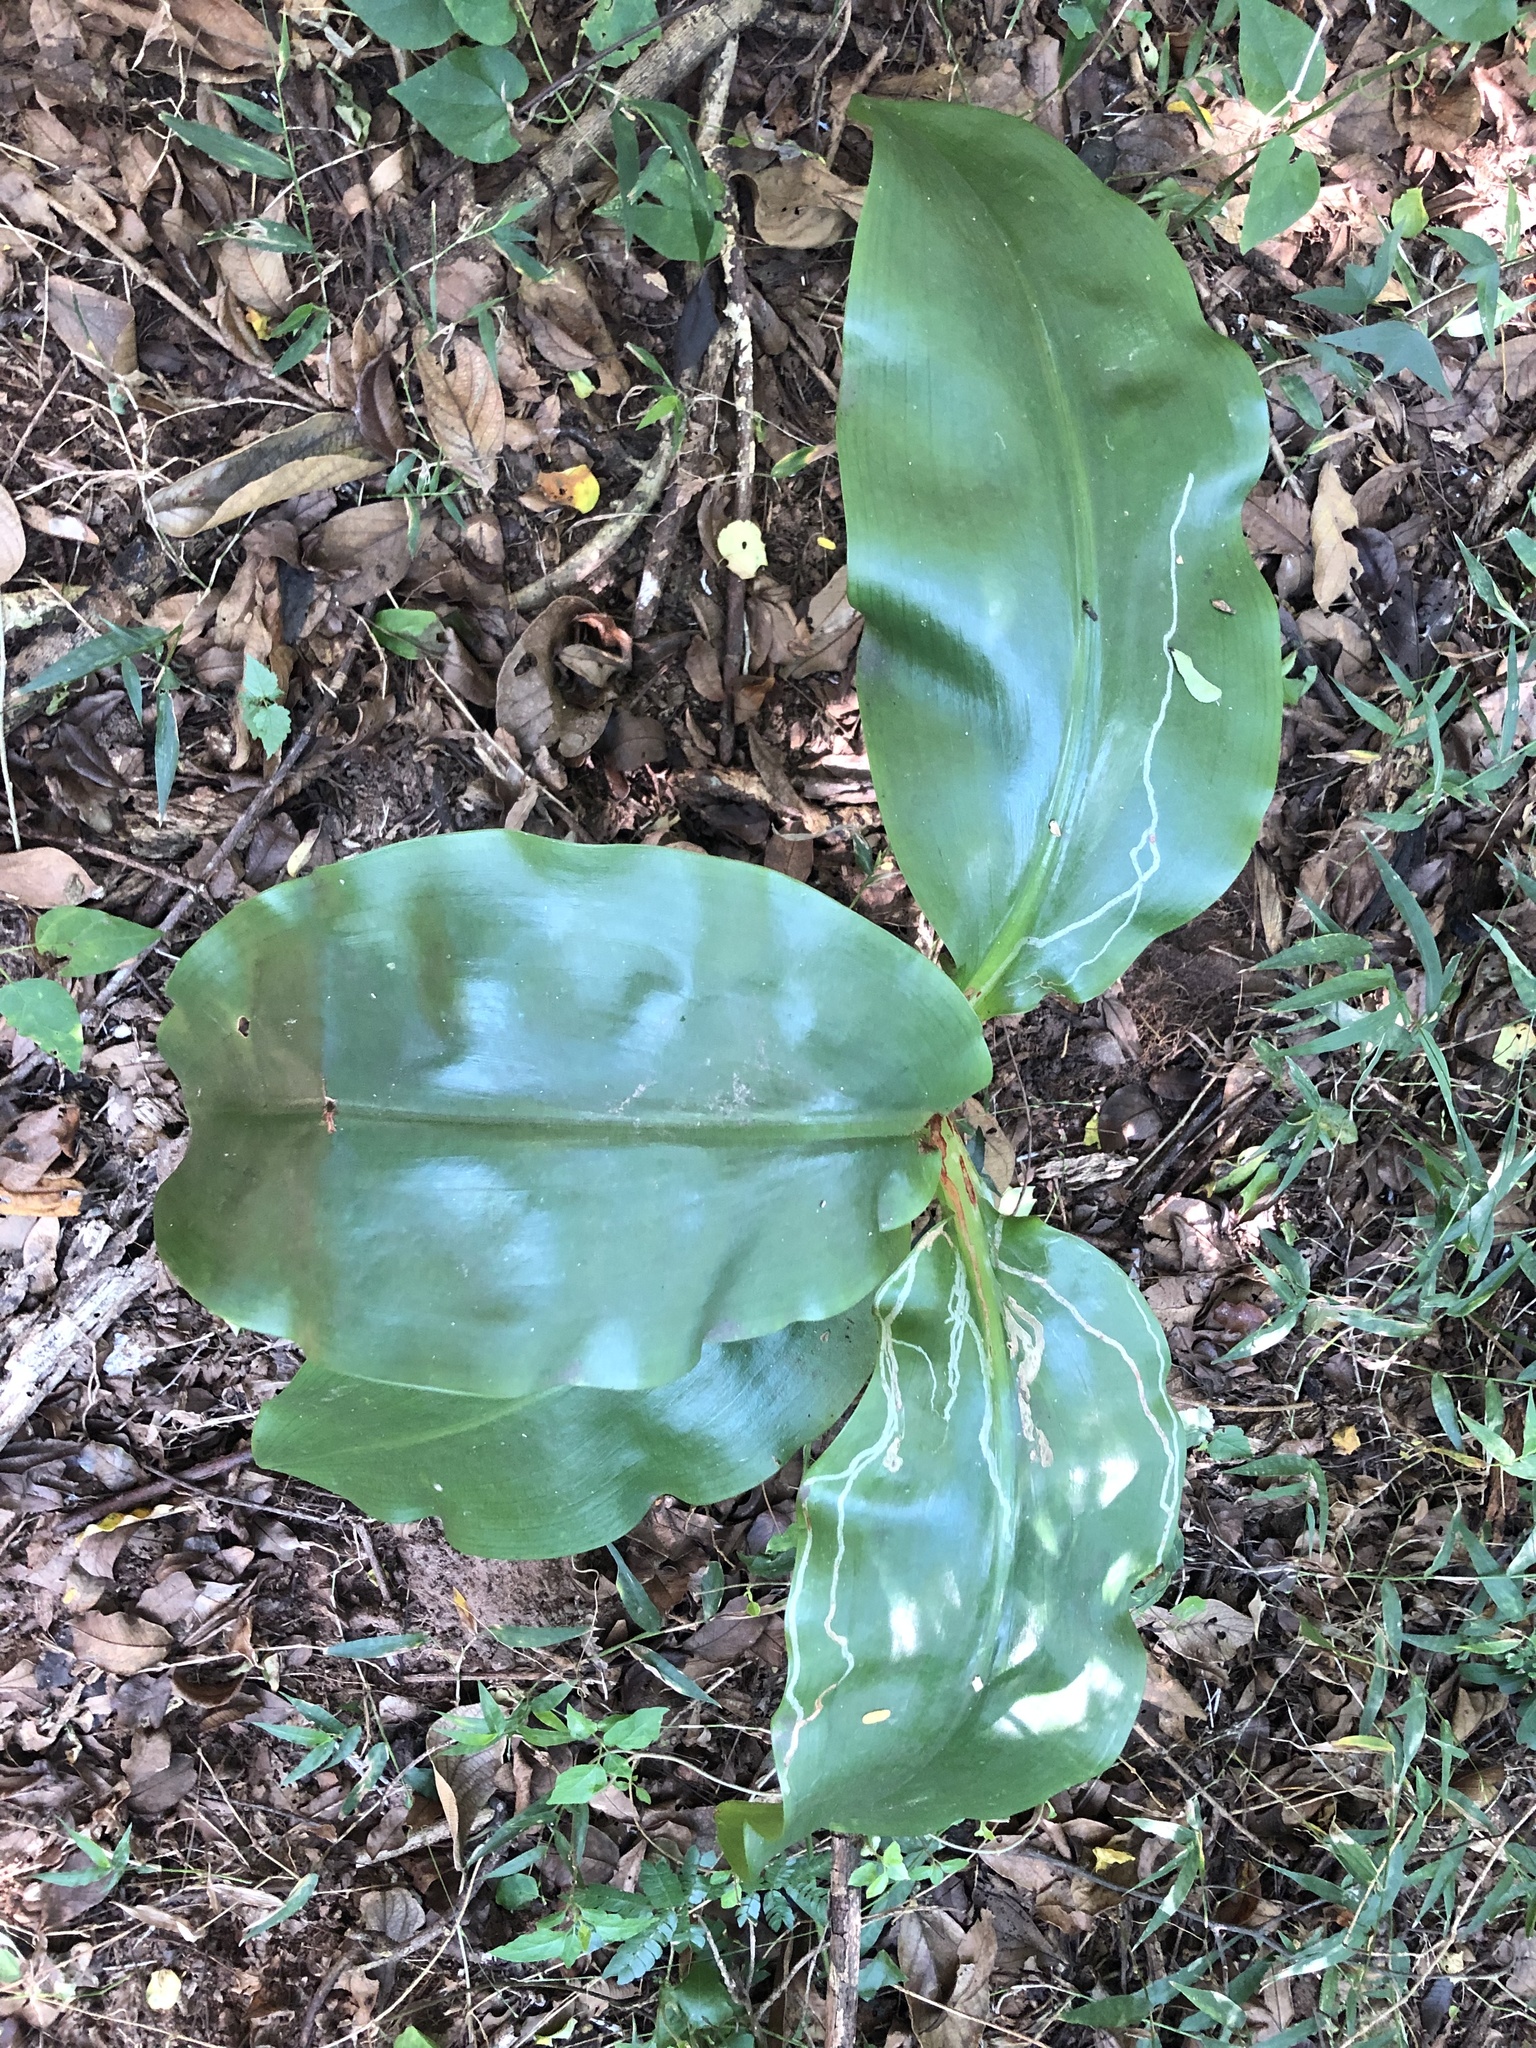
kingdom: Plantae
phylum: Tracheophyta
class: Liliopsida
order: Asparagales
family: Amaryllidaceae
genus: Scadoxus
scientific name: Scadoxus puniceus
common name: Royal-paintbrush
